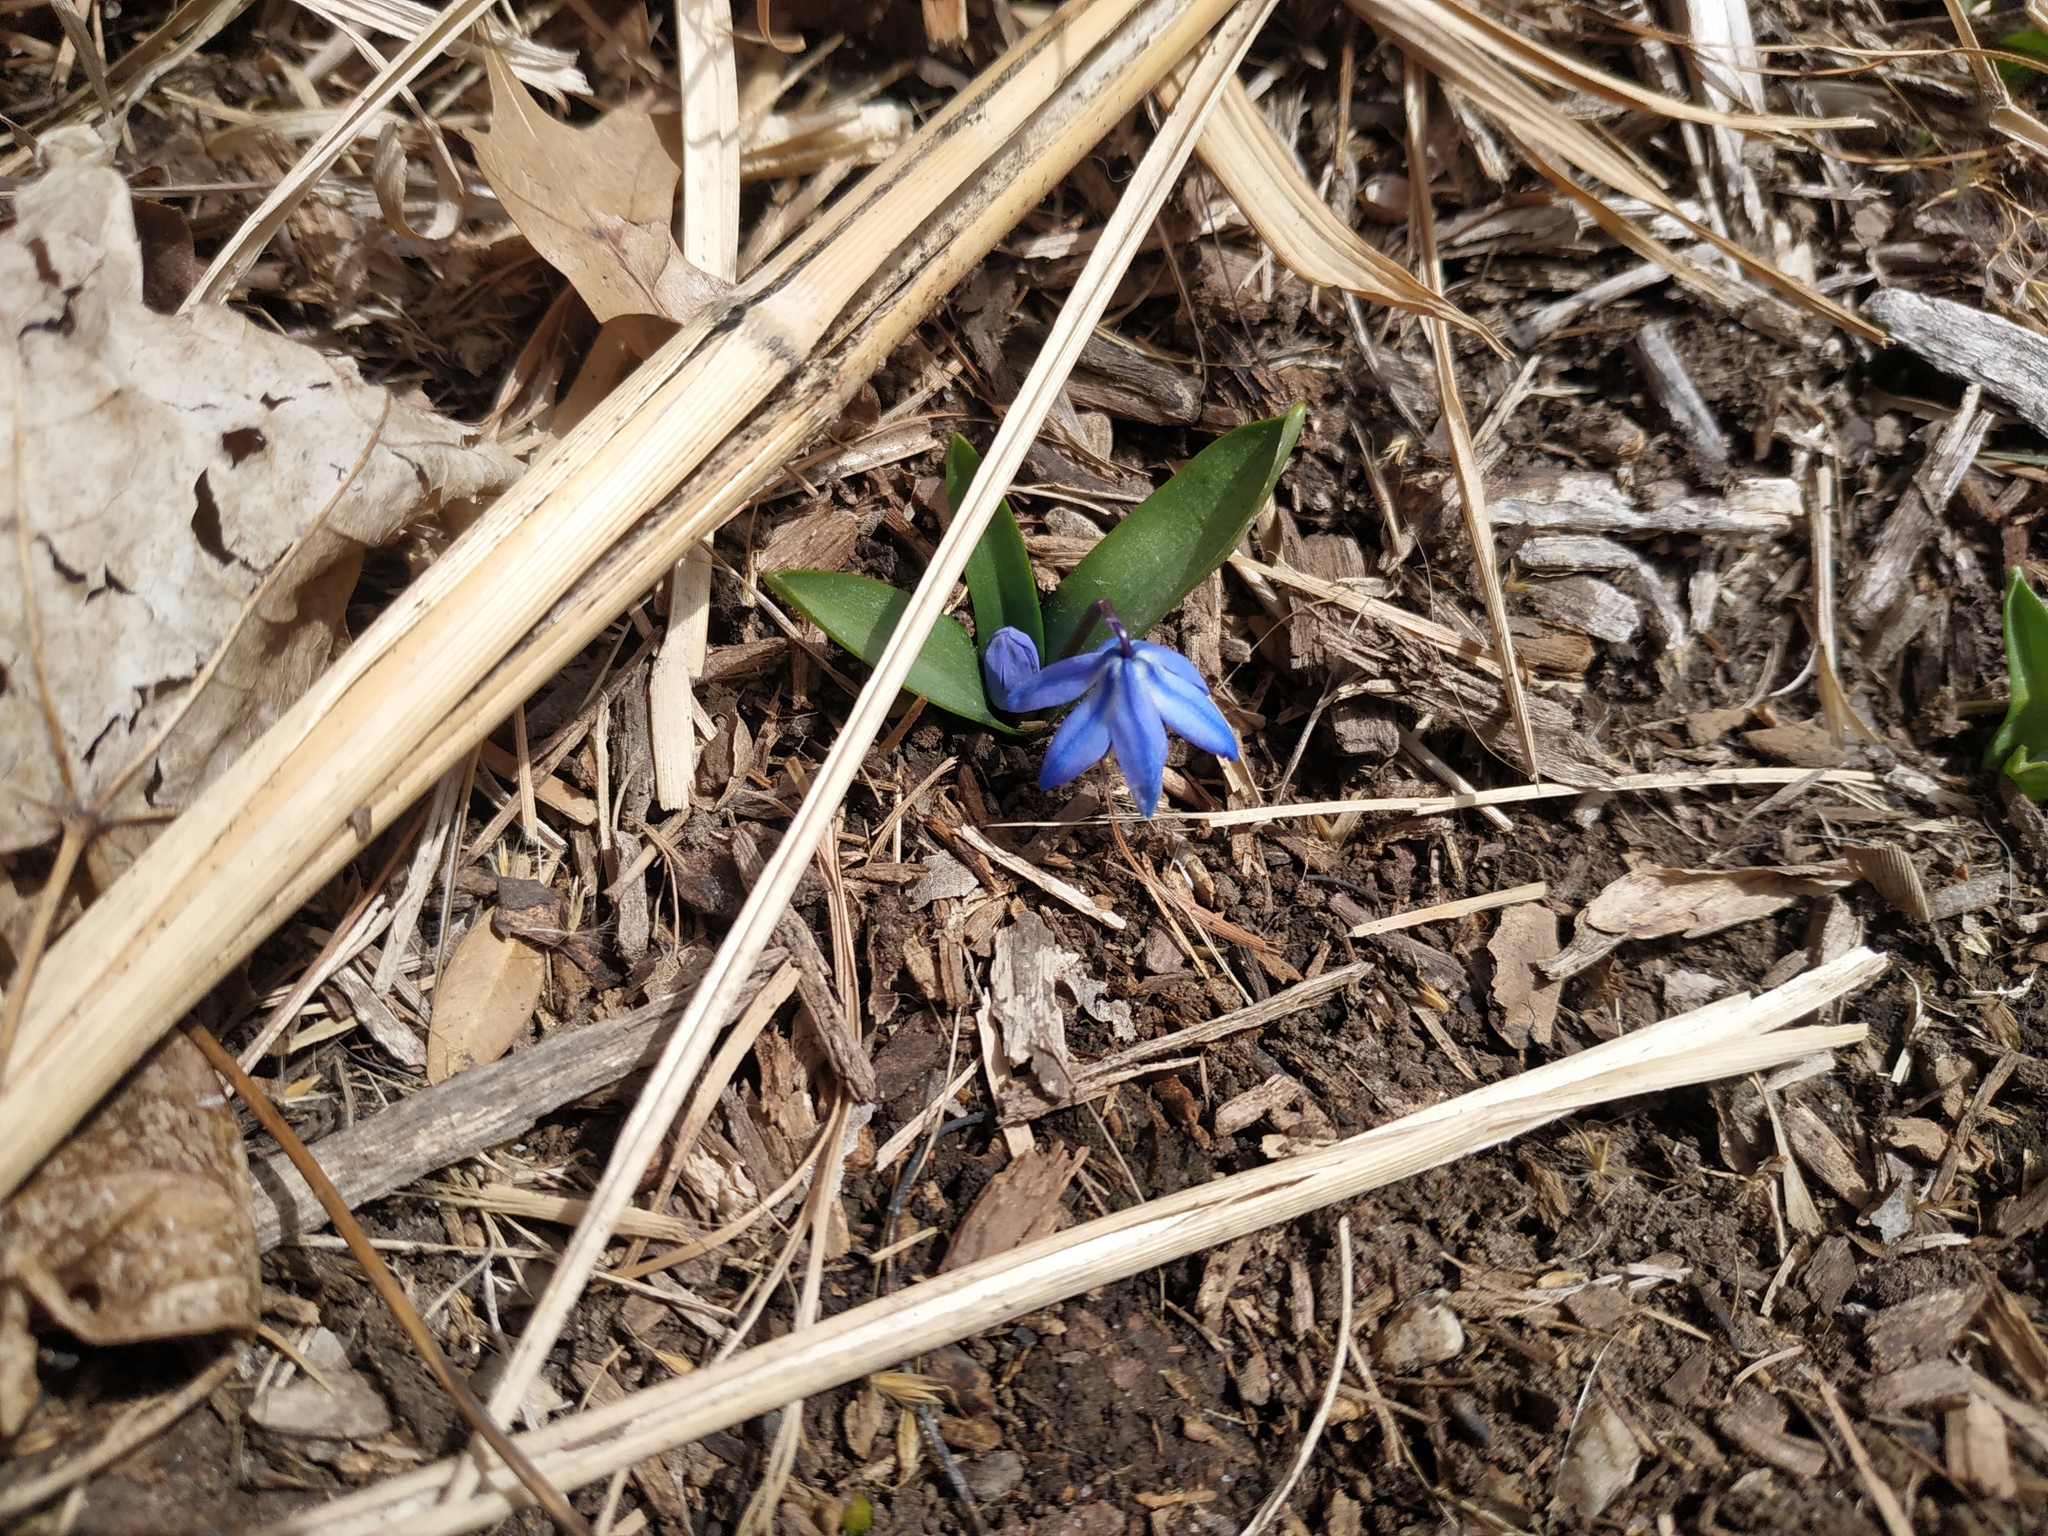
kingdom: Plantae
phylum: Tracheophyta
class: Liliopsida
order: Asparagales
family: Asparagaceae
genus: Scilla
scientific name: Scilla siberica
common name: Siberian squill
